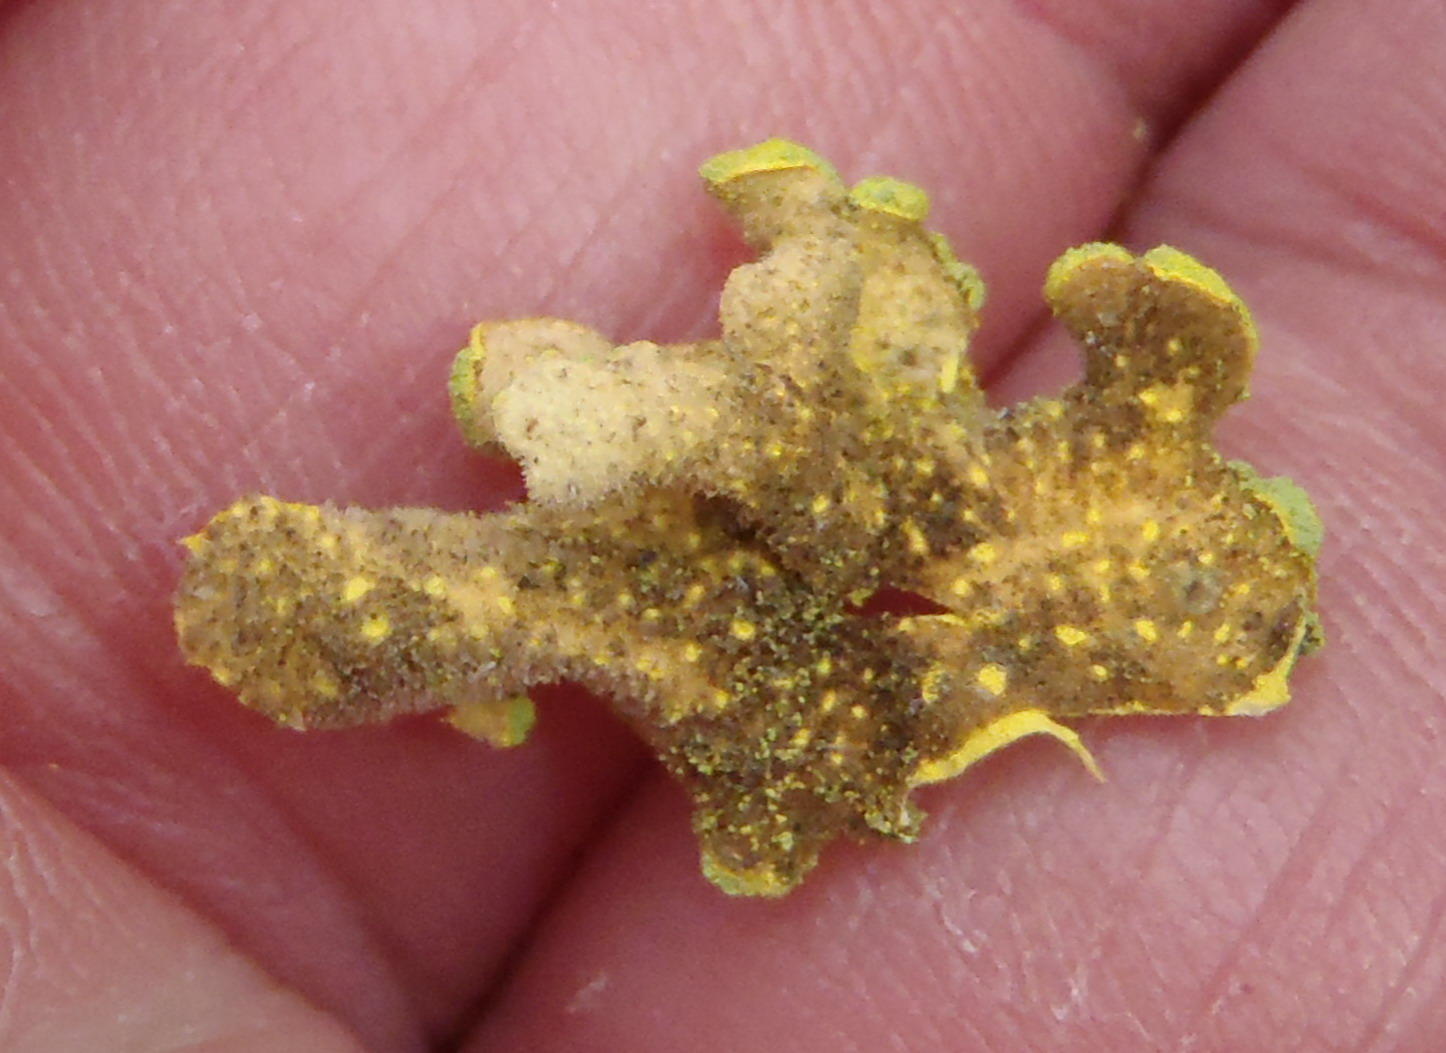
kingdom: Fungi
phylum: Ascomycota
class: Lecanoromycetes
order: Peltigerales
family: Lobariaceae
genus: Pseudocyphellaria
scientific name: Pseudocyphellaria aurata
